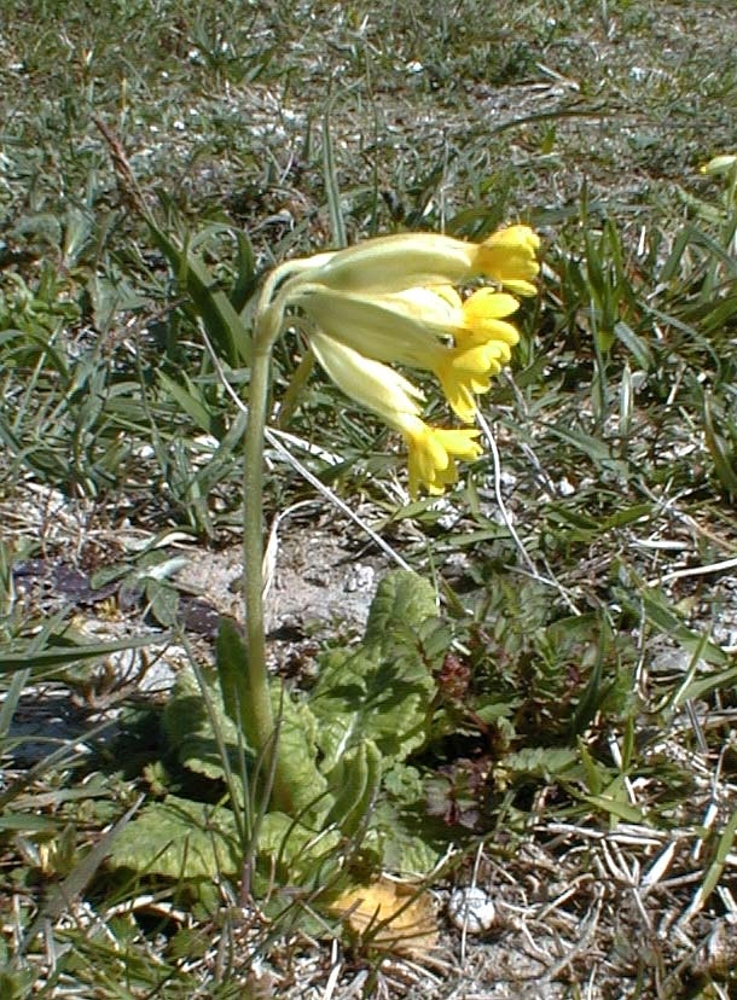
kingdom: Plantae
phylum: Tracheophyta
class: Magnoliopsida
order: Ericales
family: Primulaceae
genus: Primula
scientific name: Primula veris
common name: Cowslip
